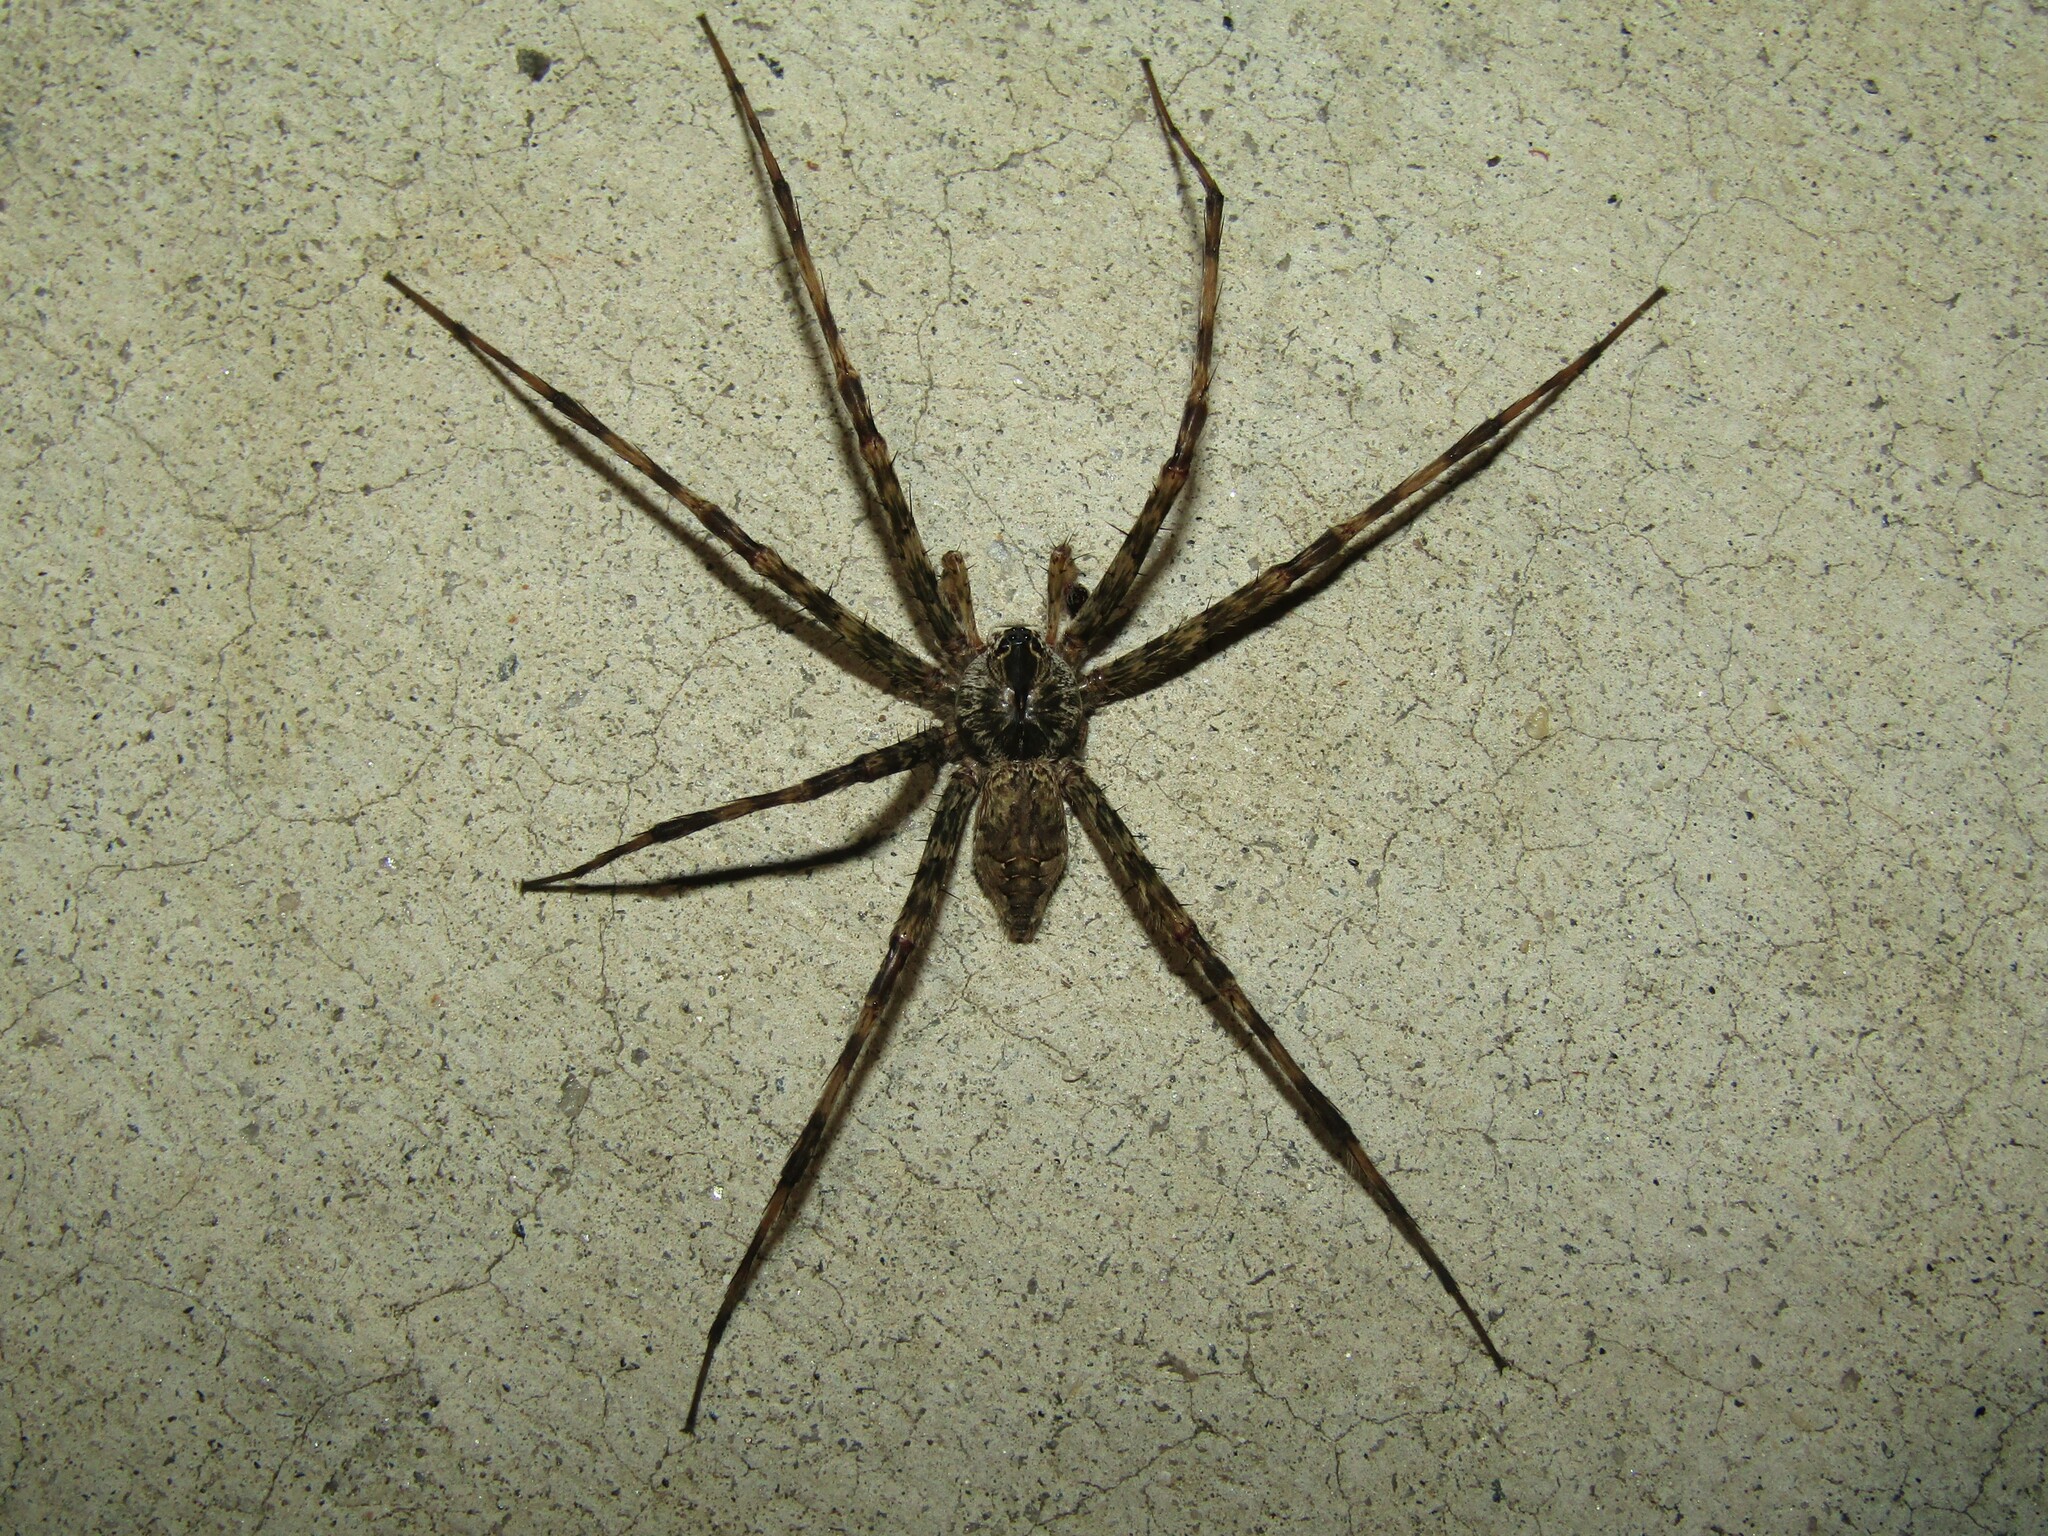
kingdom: Animalia
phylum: Arthropoda
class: Arachnida
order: Araneae
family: Pisauridae
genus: Dolomedes
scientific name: Dolomedes albineus
